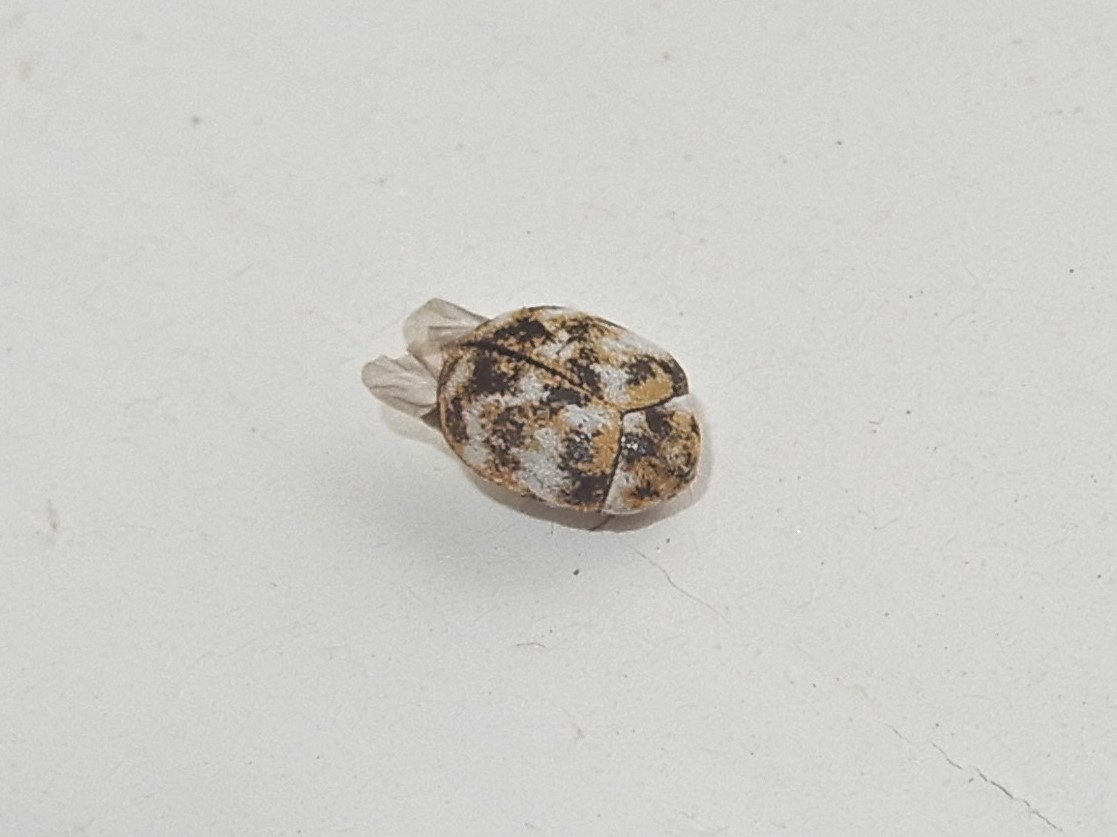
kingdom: Animalia
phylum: Arthropoda
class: Insecta
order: Coleoptera
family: Dermestidae
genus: Anthrenus
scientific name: Anthrenus verbasci
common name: Varied carpet beetle
